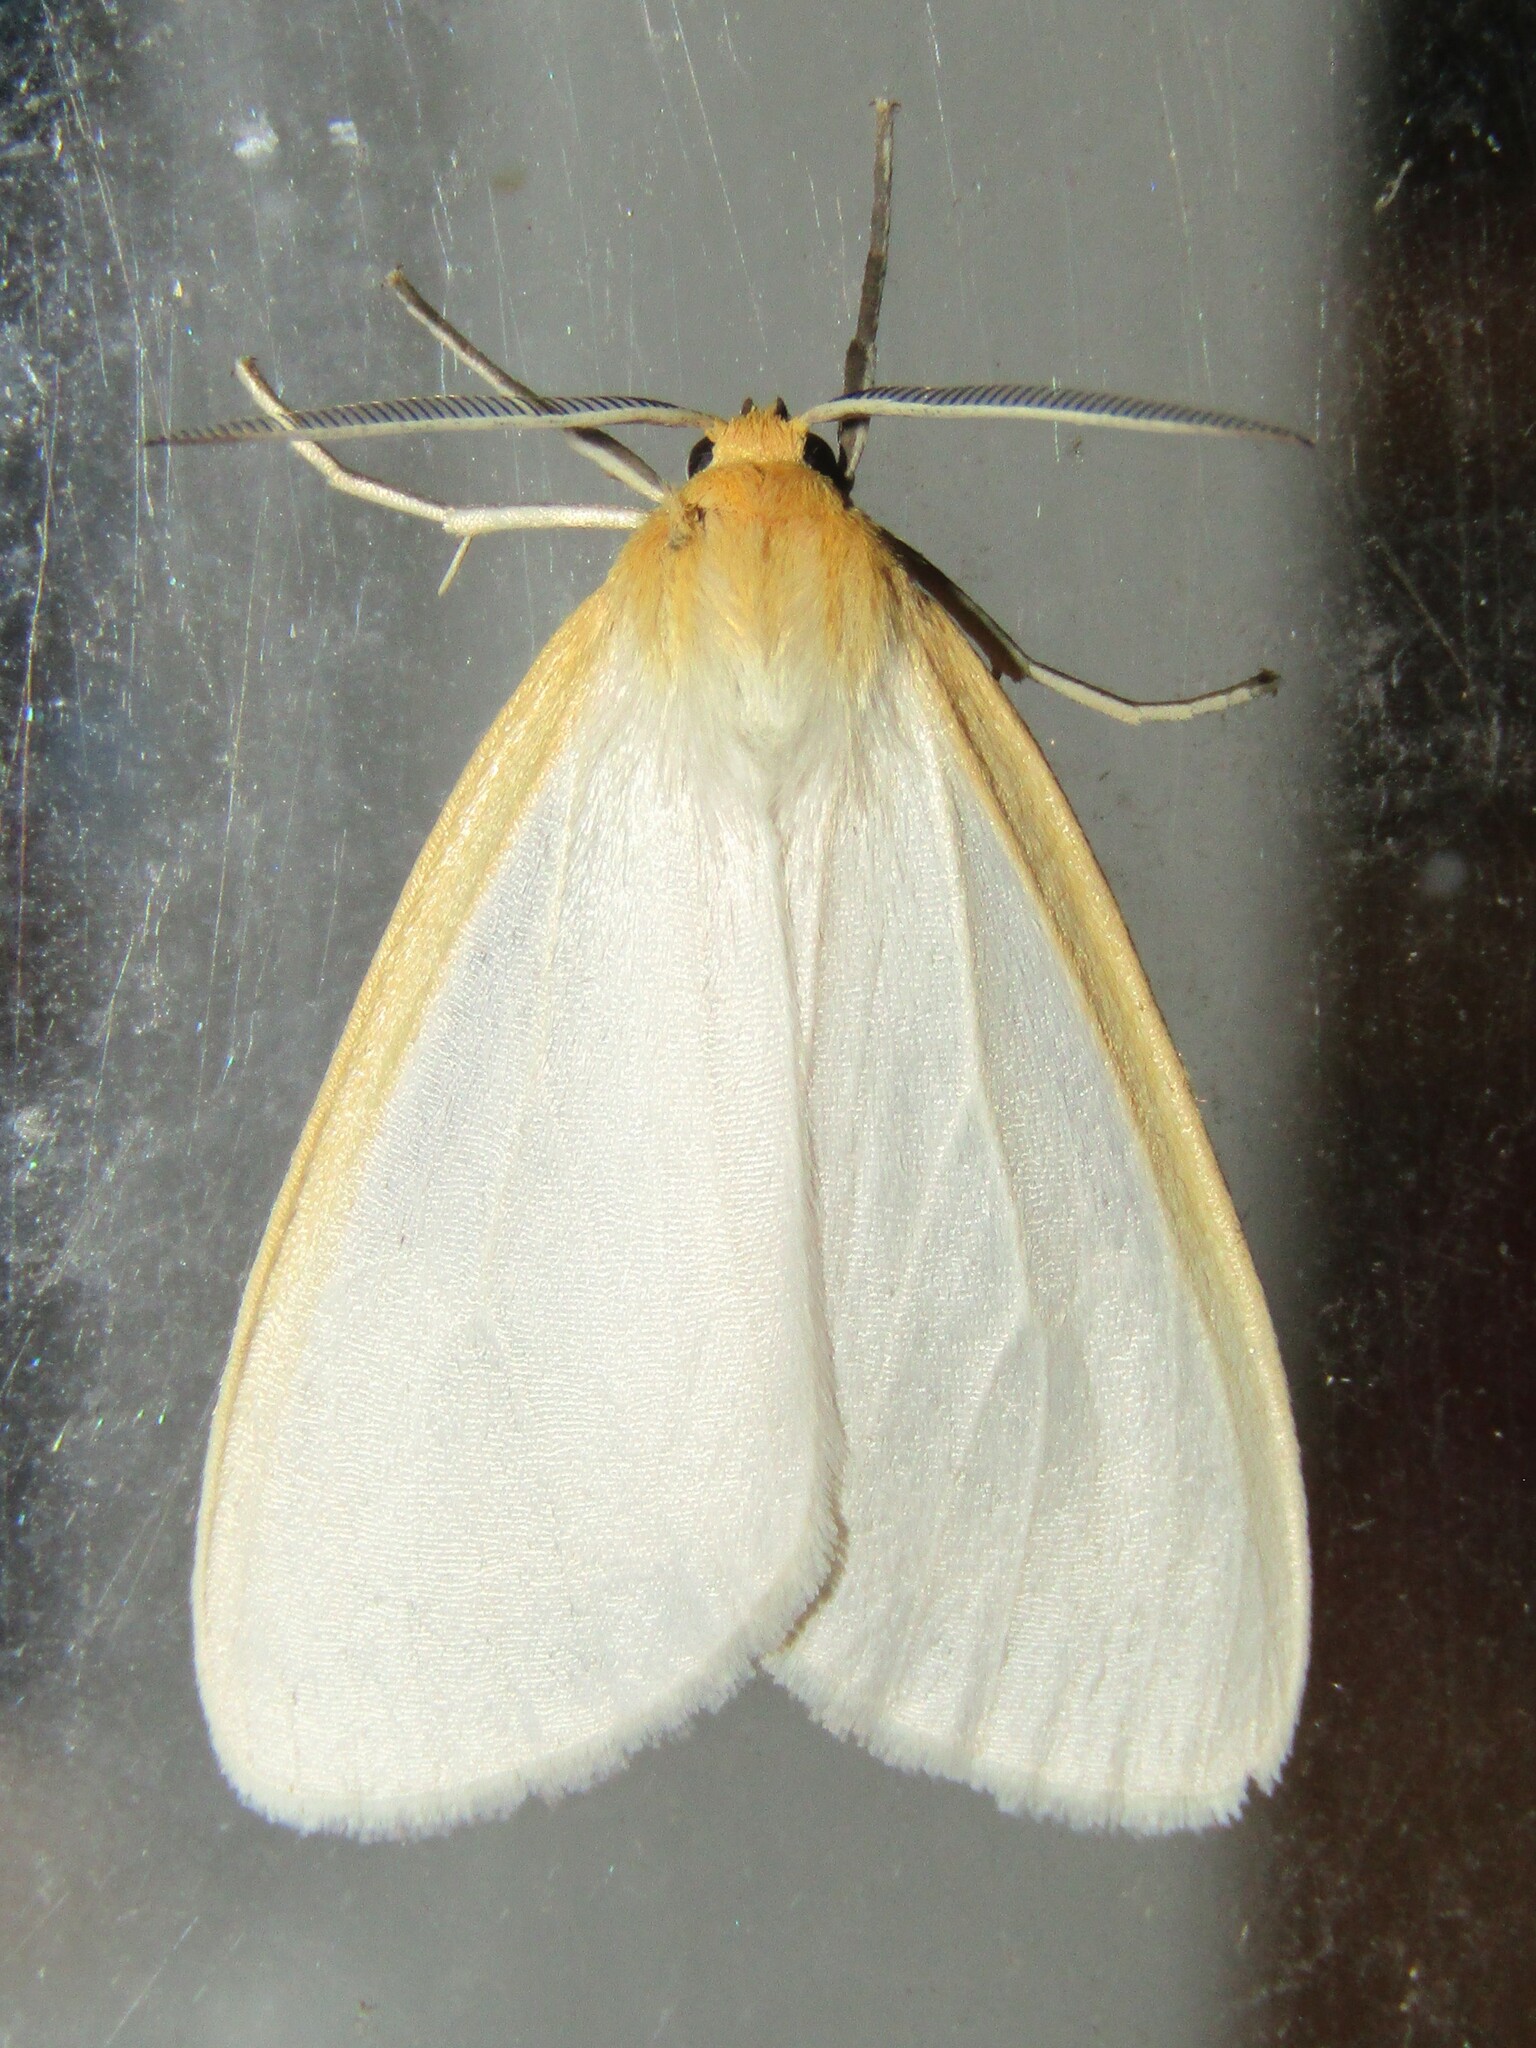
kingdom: Animalia
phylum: Arthropoda
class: Insecta
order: Lepidoptera
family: Erebidae
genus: Cycnia
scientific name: Cycnia tenera
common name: Delicate cycnia moth
